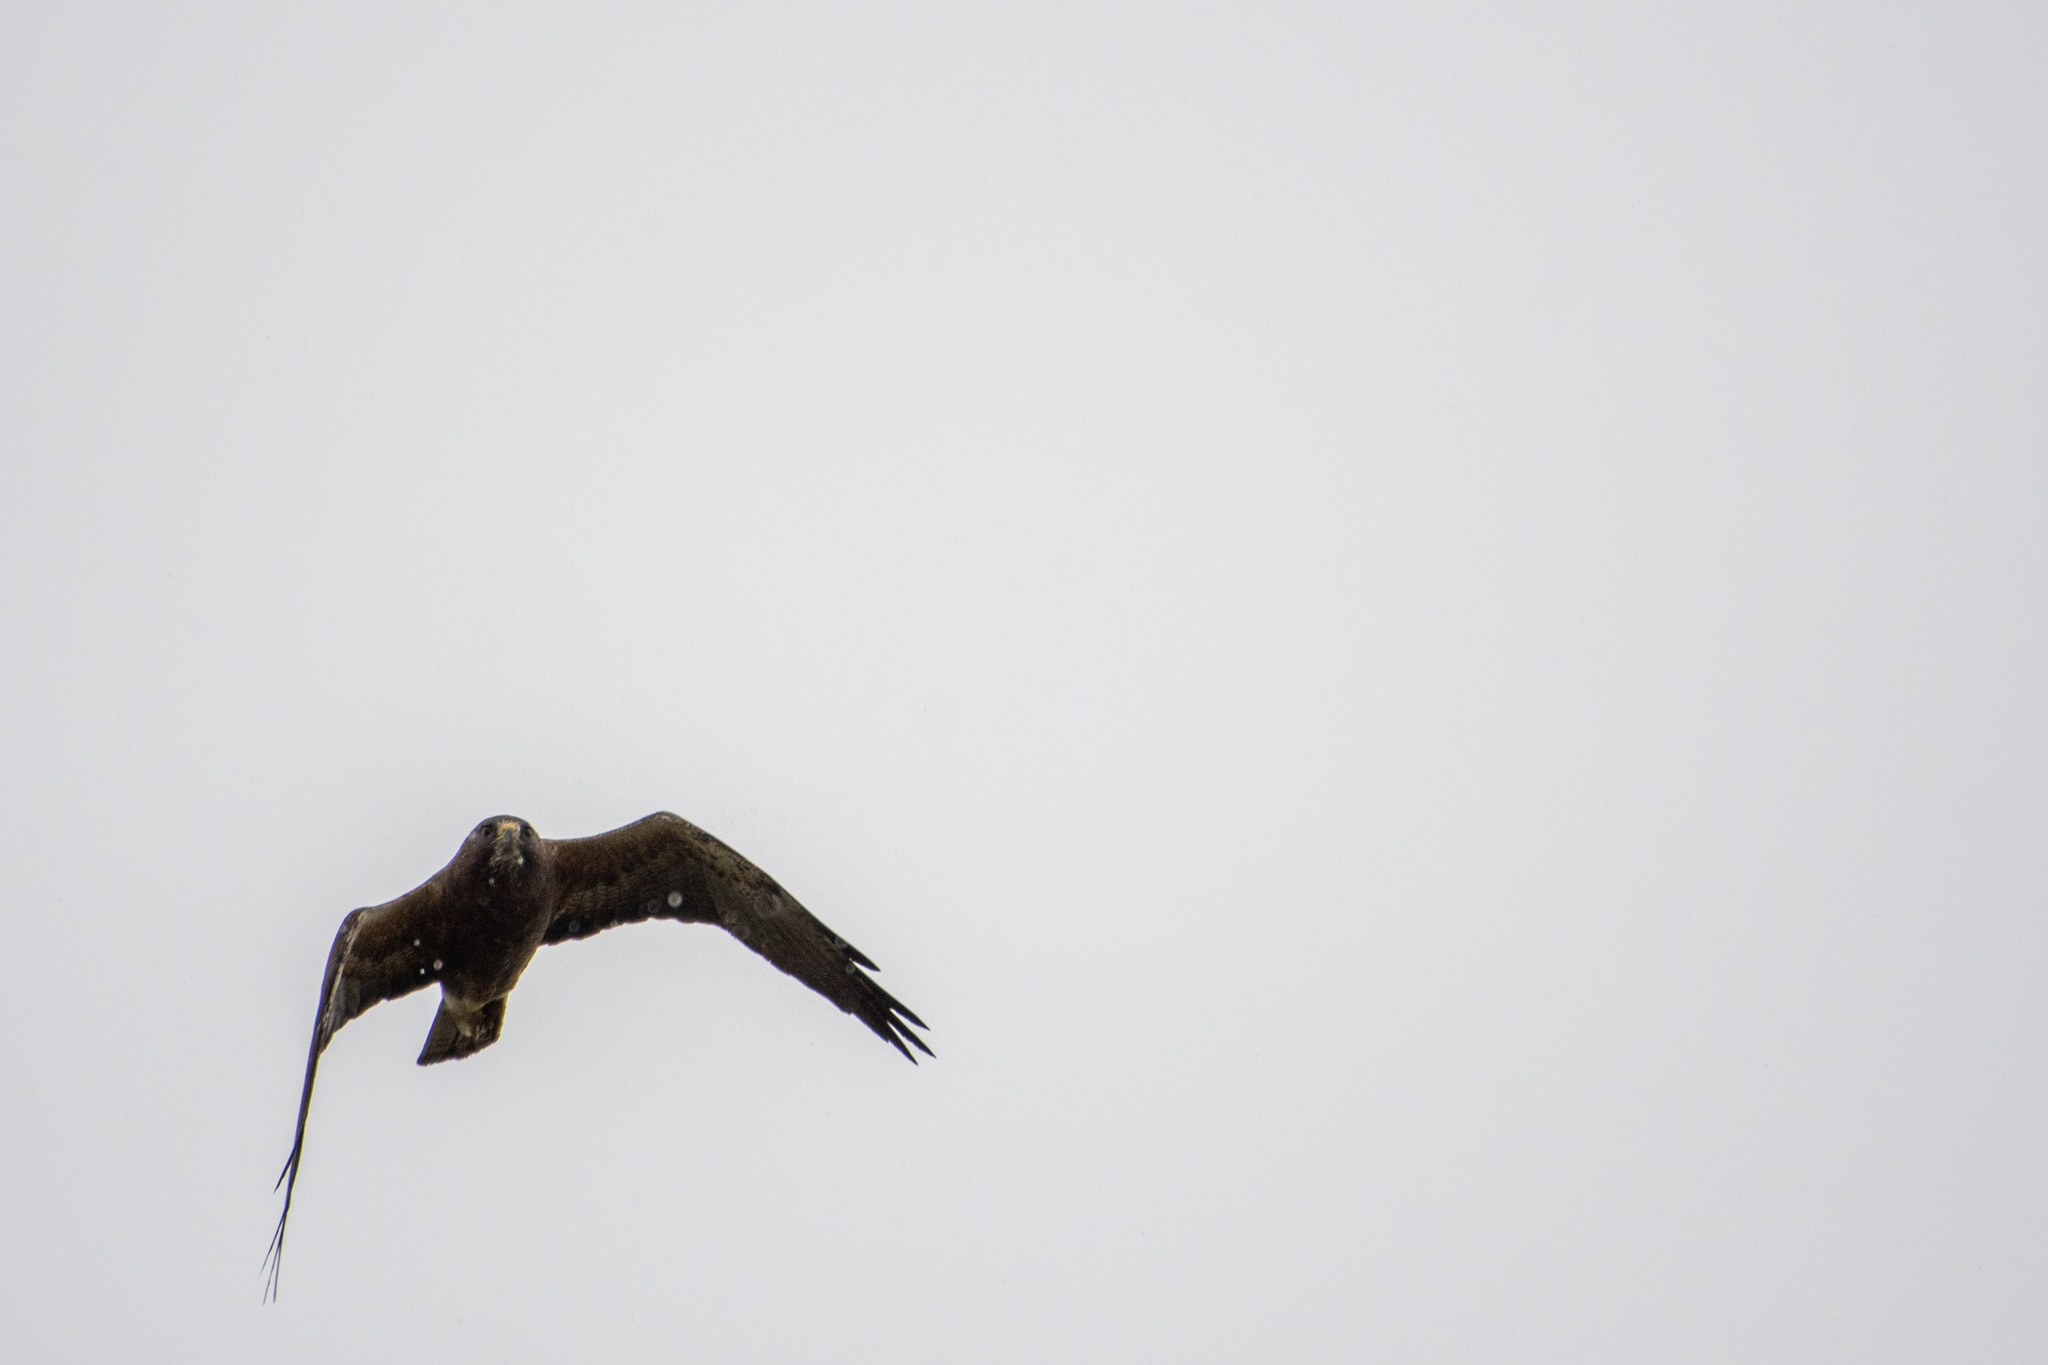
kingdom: Animalia
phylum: Chordata
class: Aves
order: Accipitriformes
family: Accipitridae
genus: Buteo
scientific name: Buteo swainsoni
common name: Swainson's hawk
